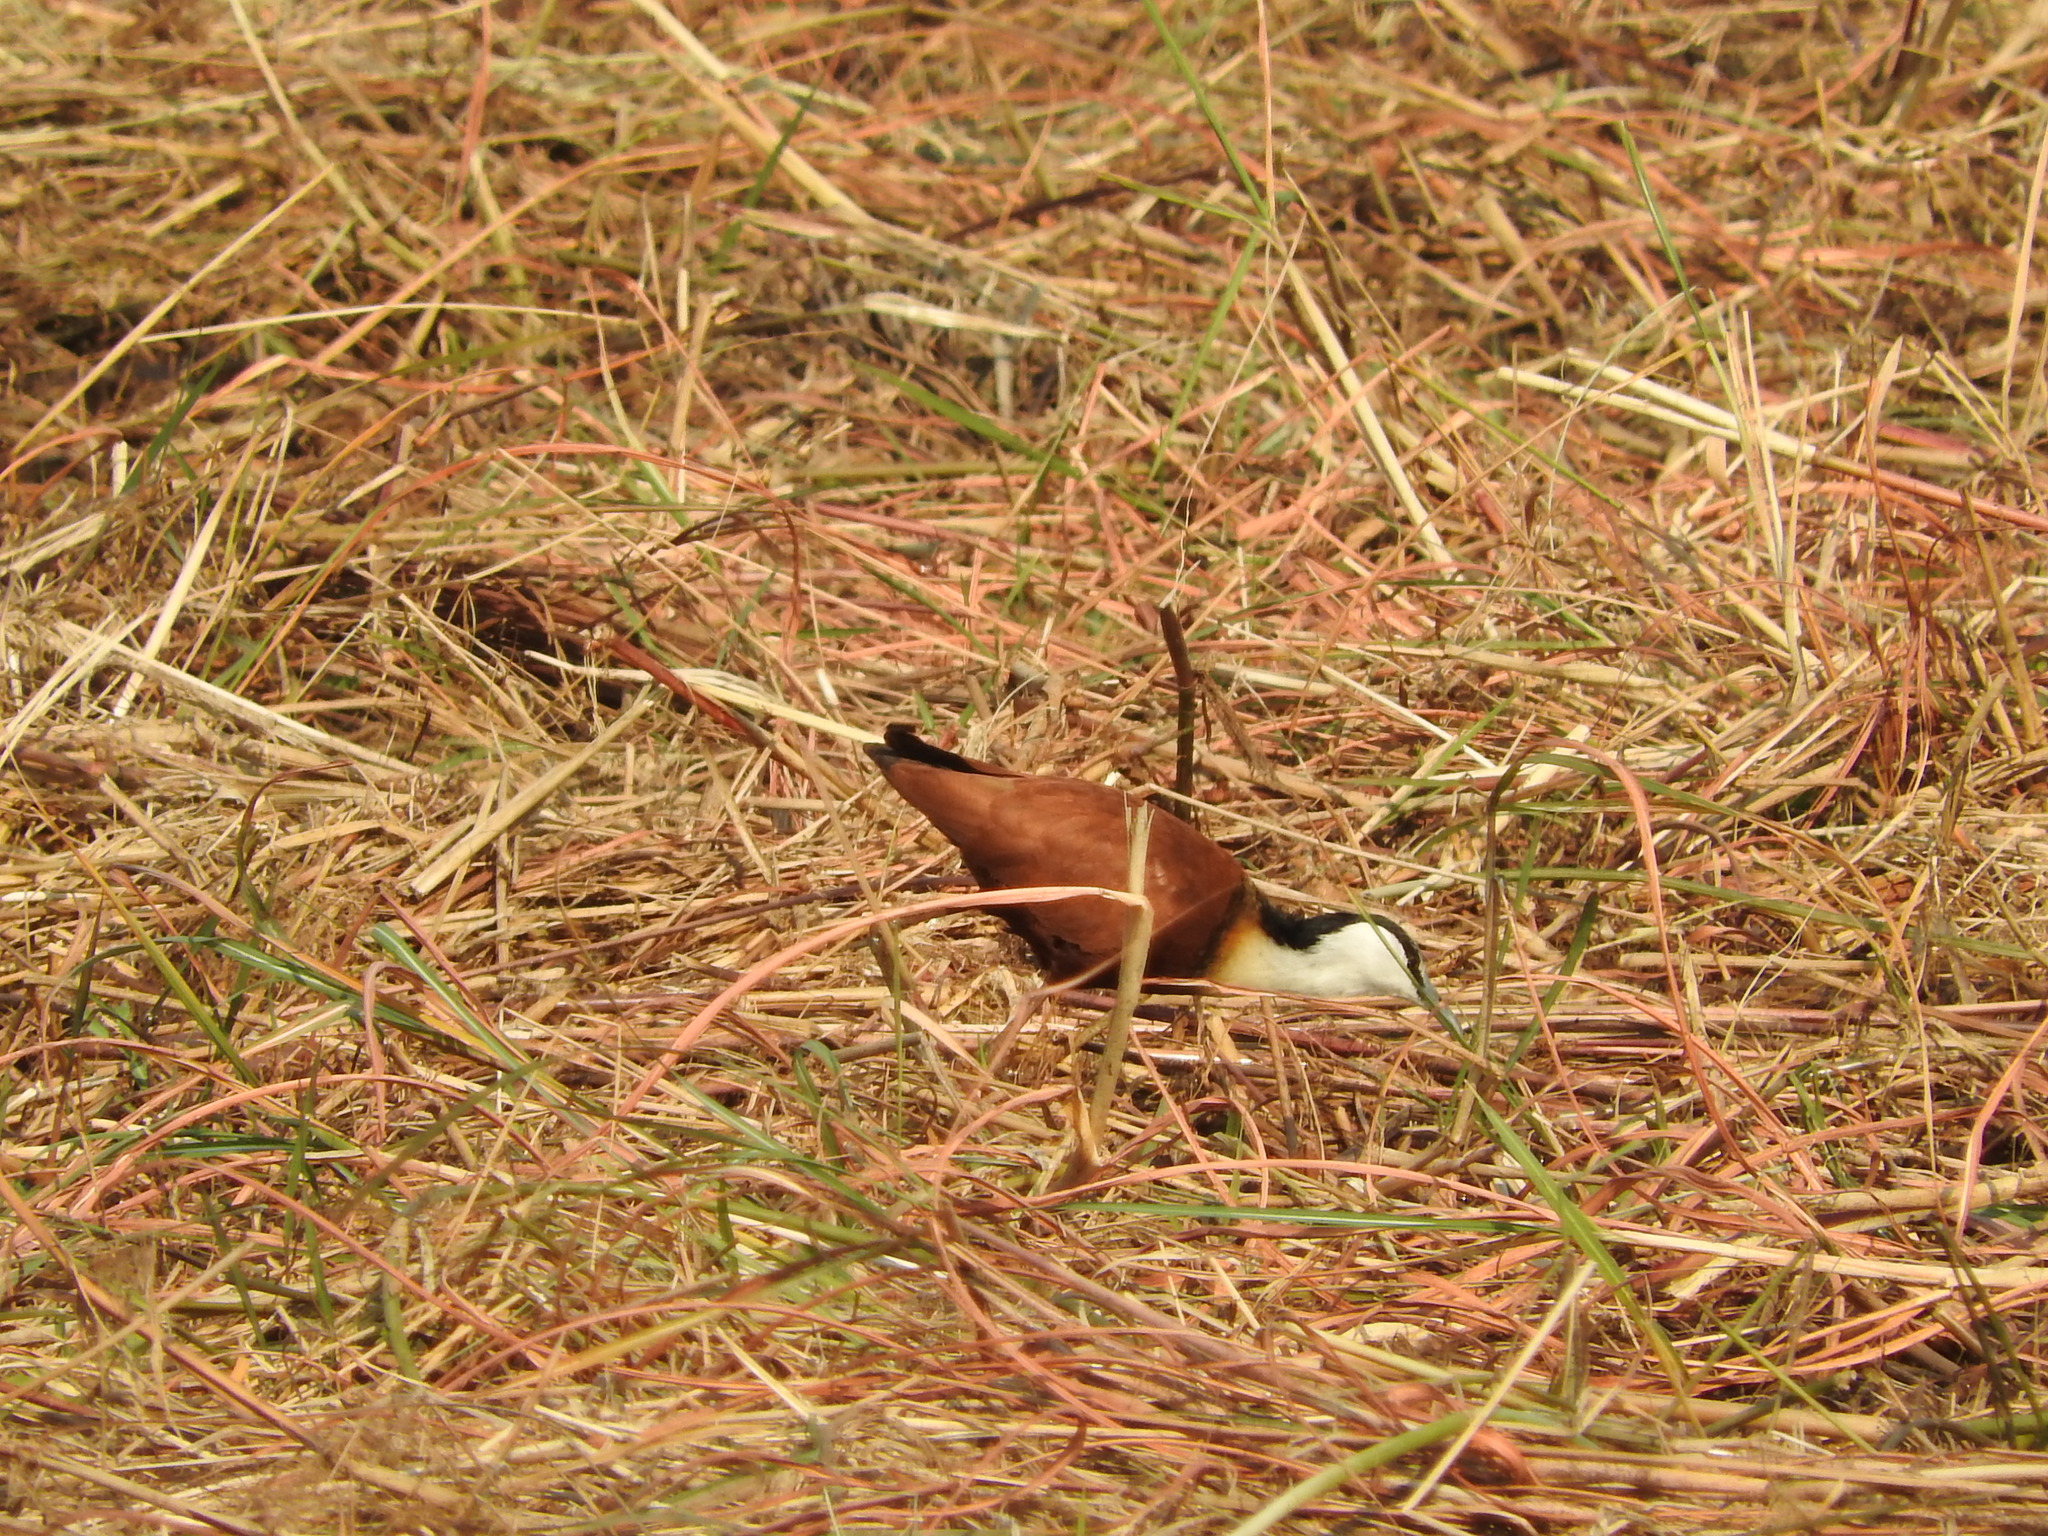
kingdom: Animalia
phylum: Chordata
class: Aves
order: Charadriiformes
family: Jacanidae
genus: Actophilornis
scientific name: Actophilornis africanus
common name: African jacana
